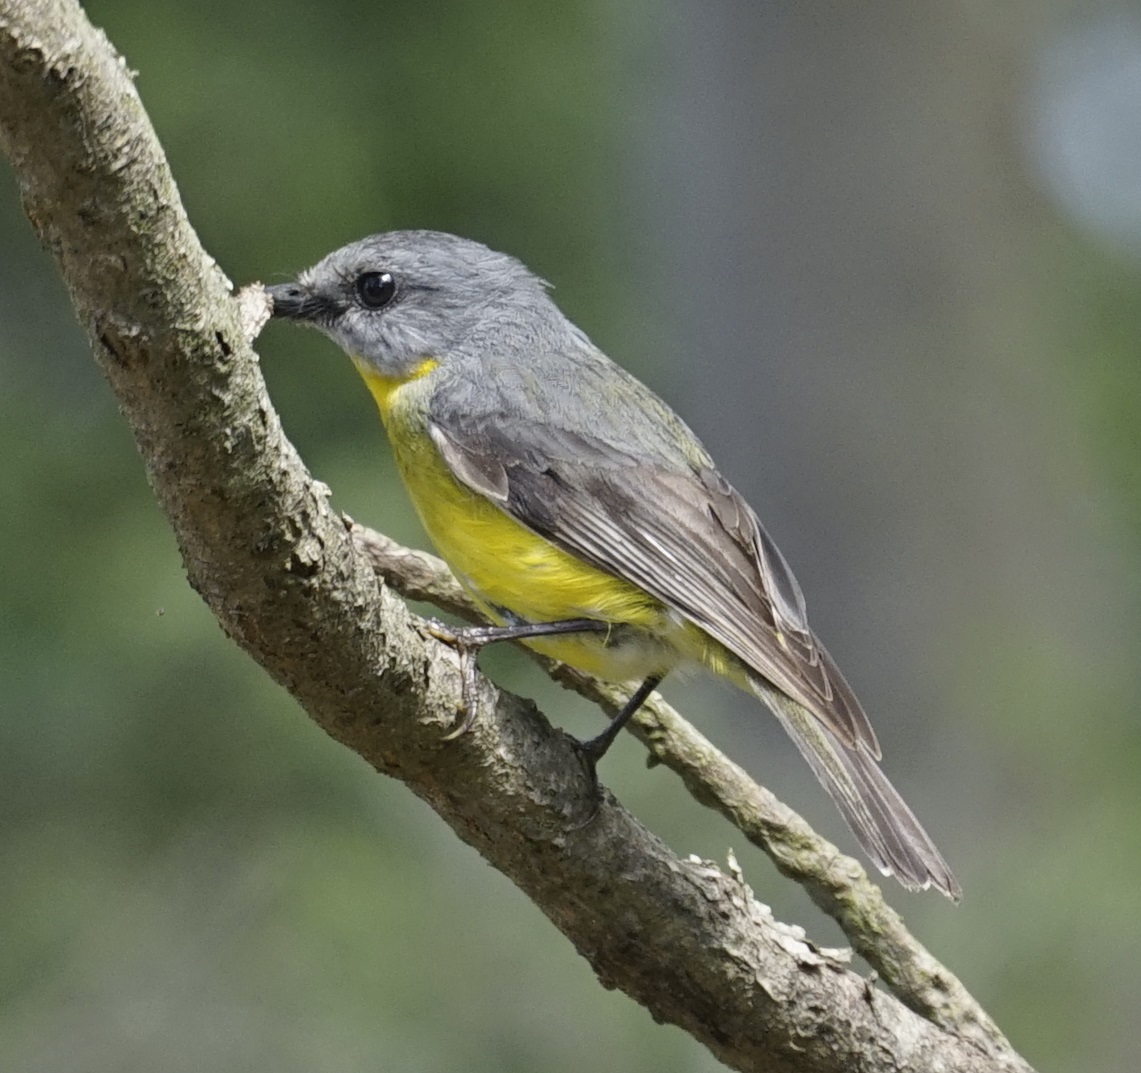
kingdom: Animalia
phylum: Chordata
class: Aves
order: Passeriformes
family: Petroicidae
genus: Eopsaltria
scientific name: Eopsaltria australis
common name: Eastern yellow robin
